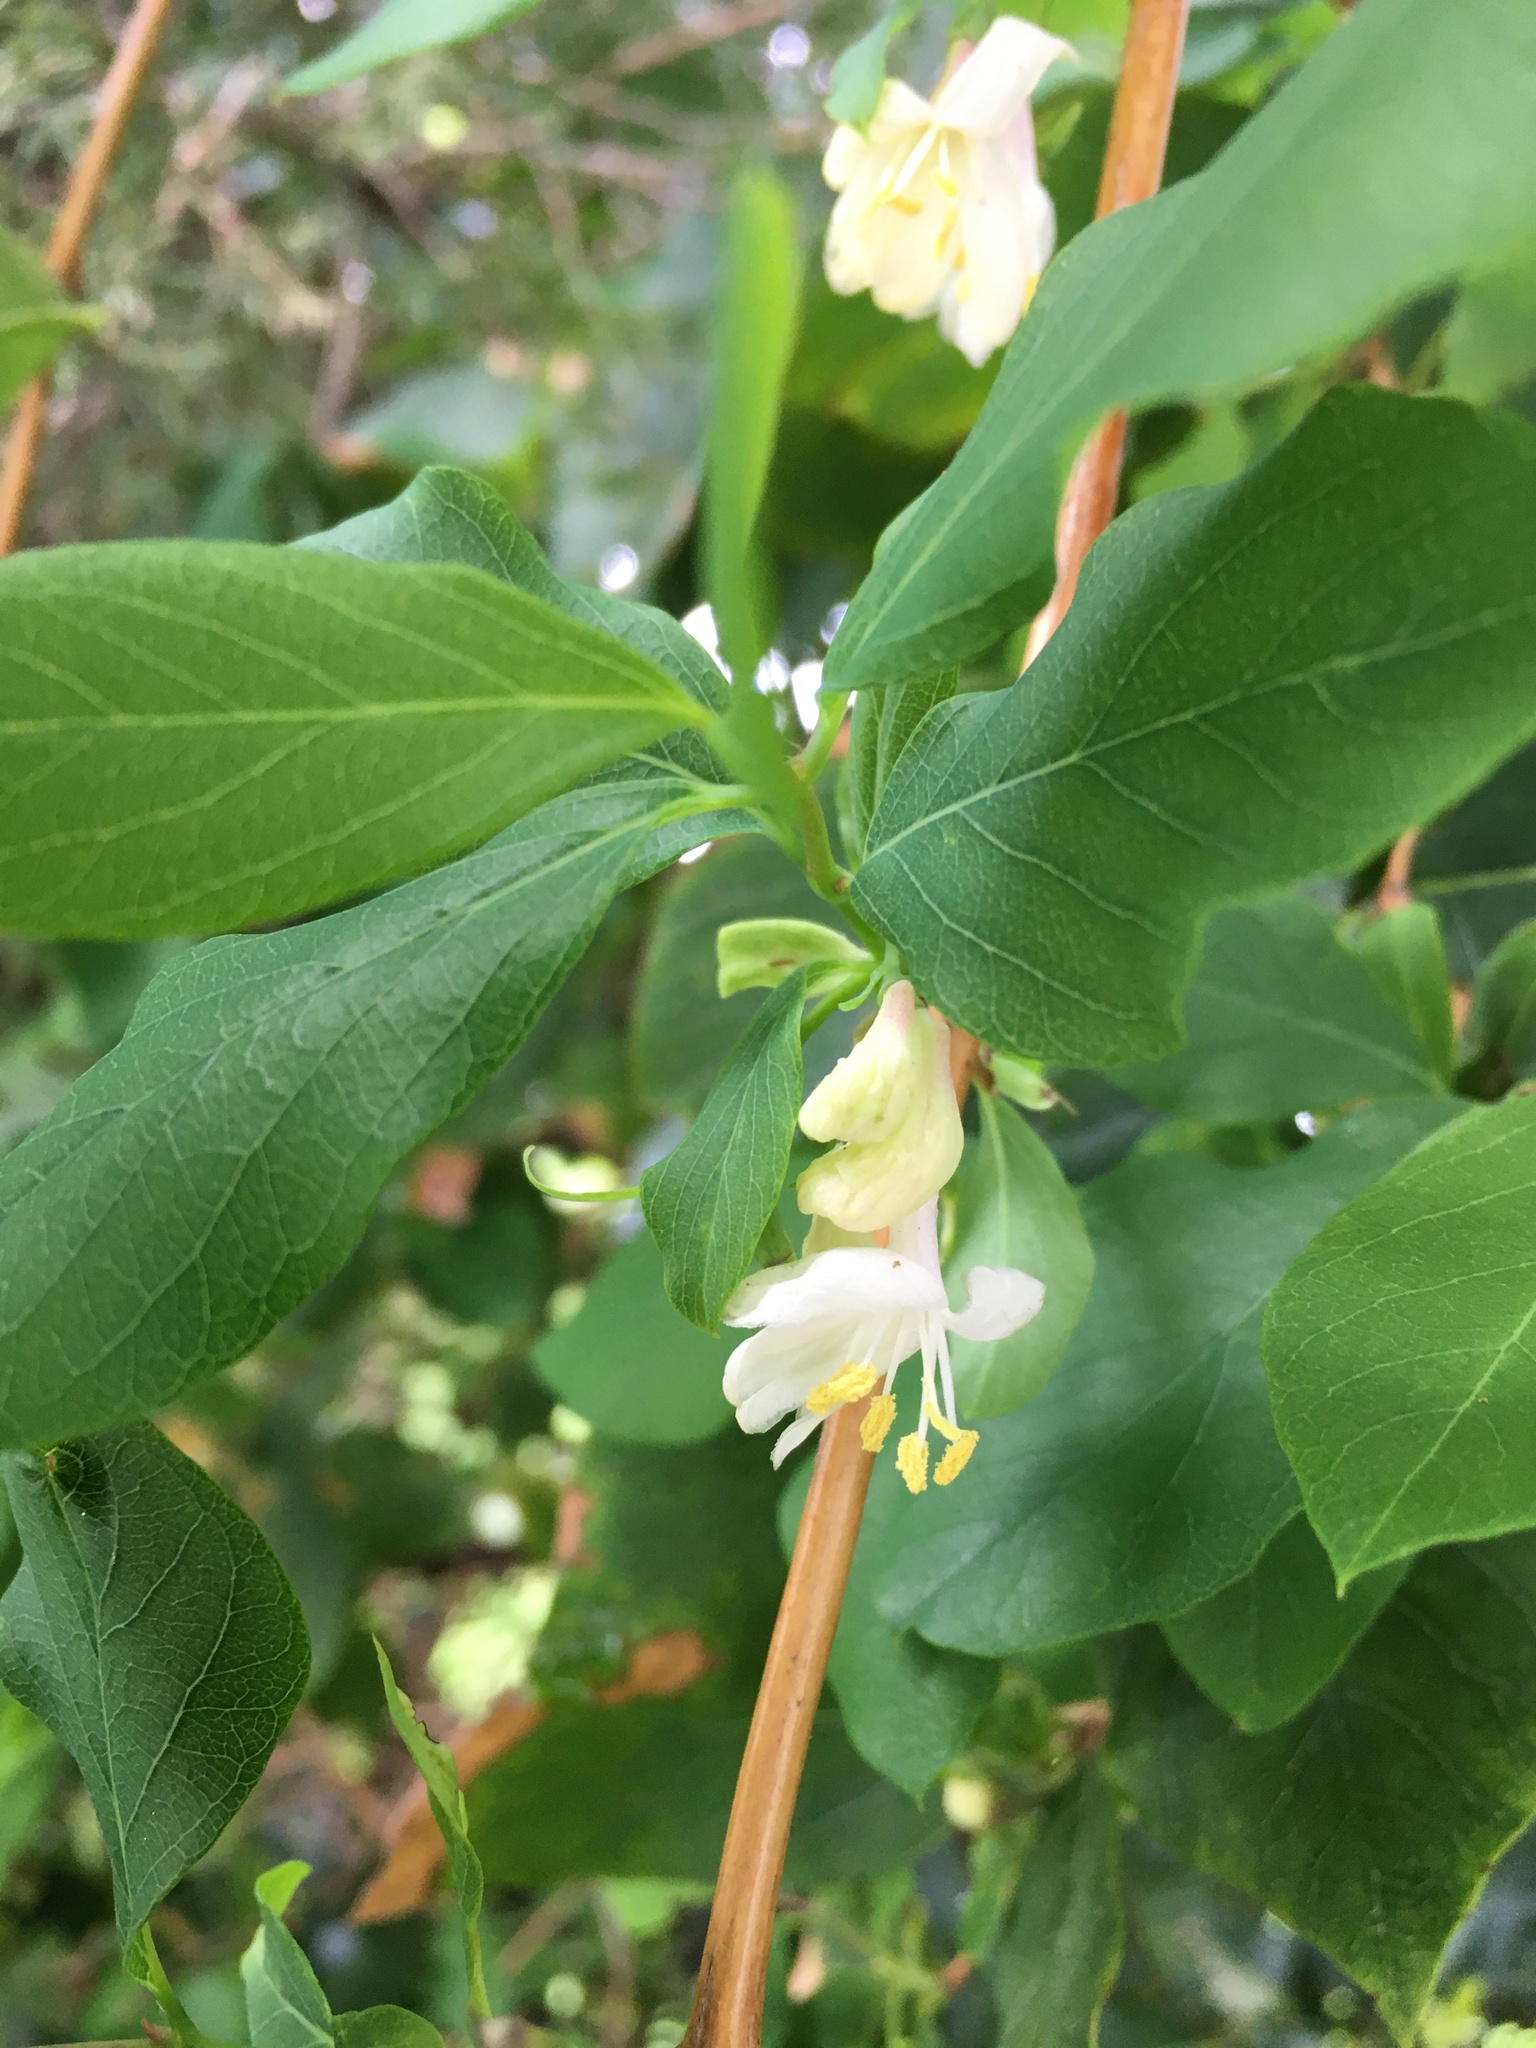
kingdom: Plantae
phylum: Tracheophyta
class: Magnoliopsida
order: Dipsacales
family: Caprifoliaceae
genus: Lonicera
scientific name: Lonicera fragrantissima
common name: Fragrant honeysuckle
